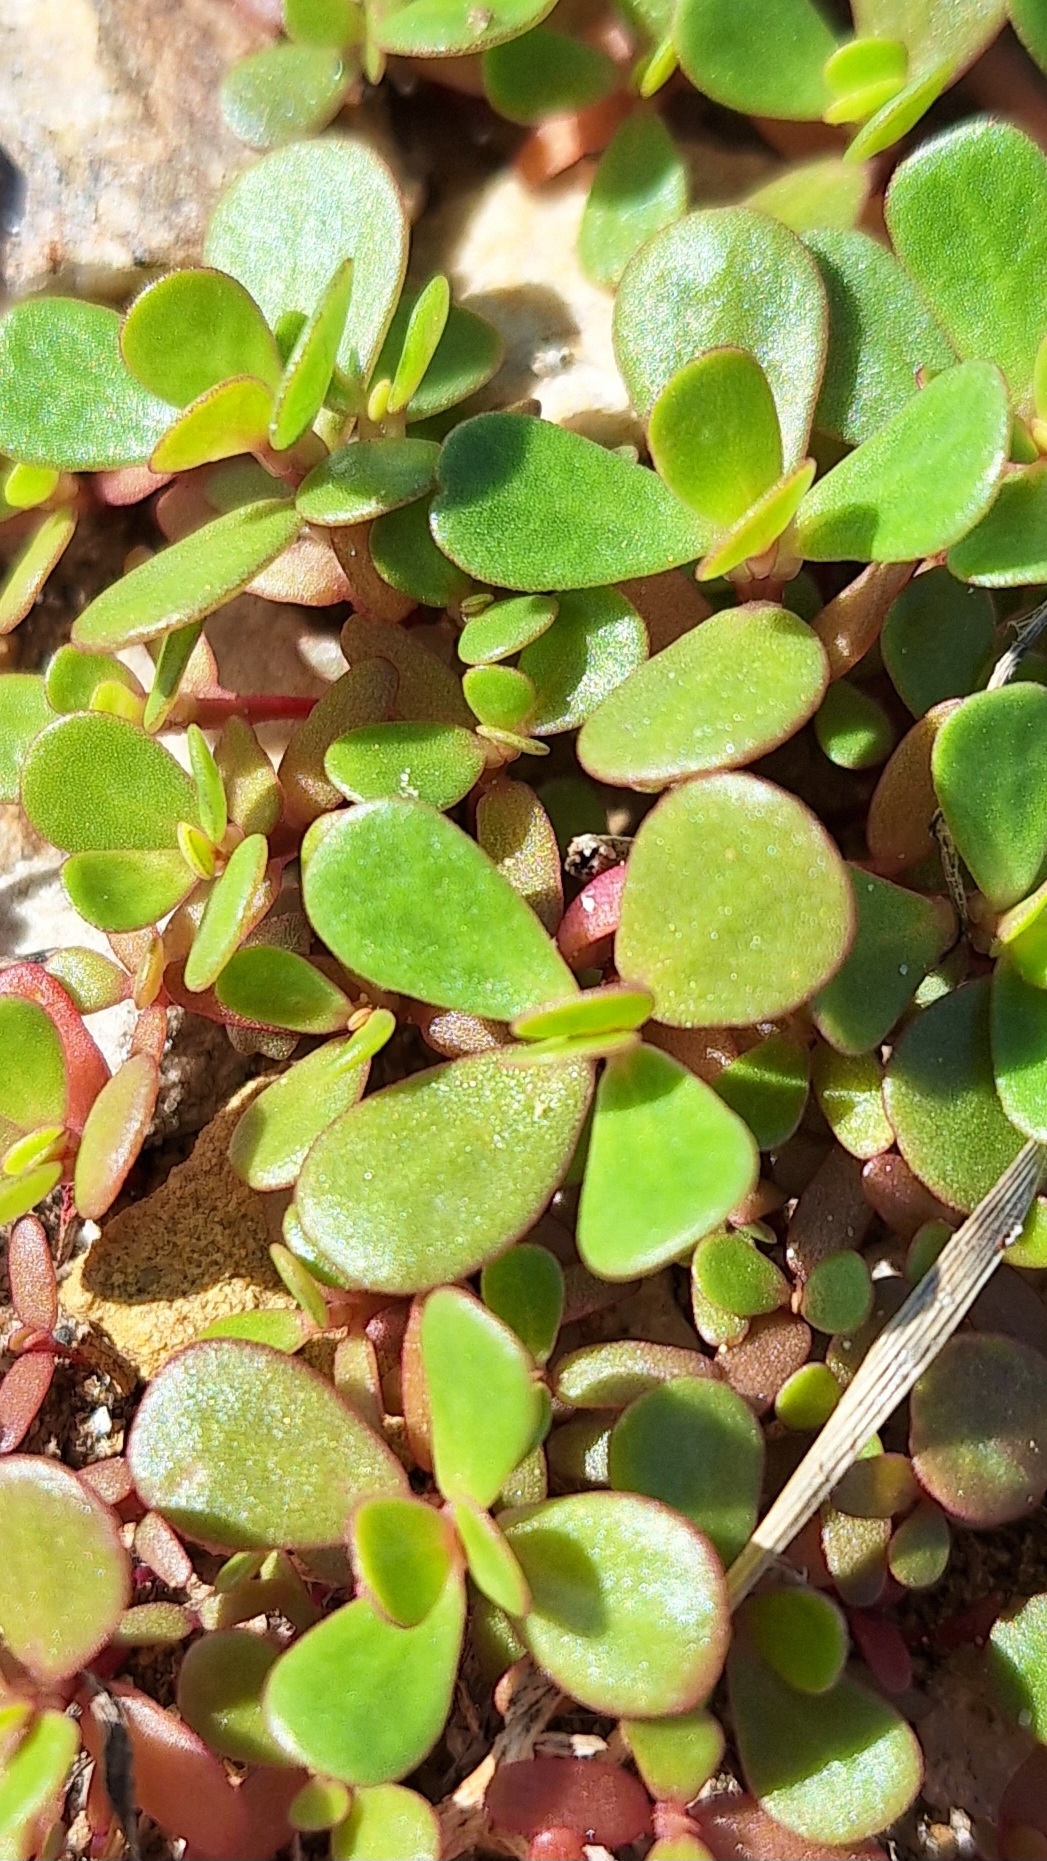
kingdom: Plantae
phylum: Tracheophyta
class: Magnoliopsida
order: Caryophyllales
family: Portulacaceae
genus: Portulaca
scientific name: Portulaca oleracea
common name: Common purslane
